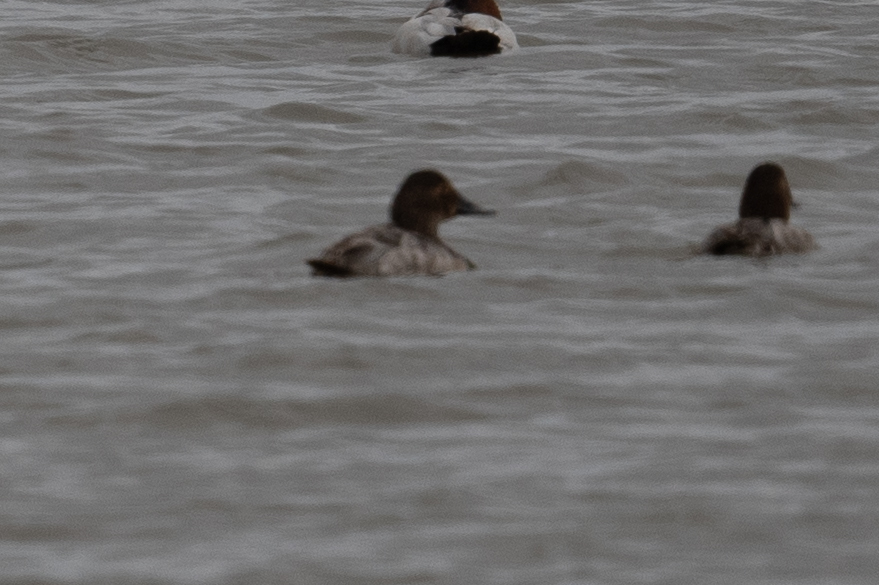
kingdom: Animalia
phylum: Chordata
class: Aves
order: Anseriformes
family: Anatidae
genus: Aythya
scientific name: Aythya valisineria
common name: Canvasback
